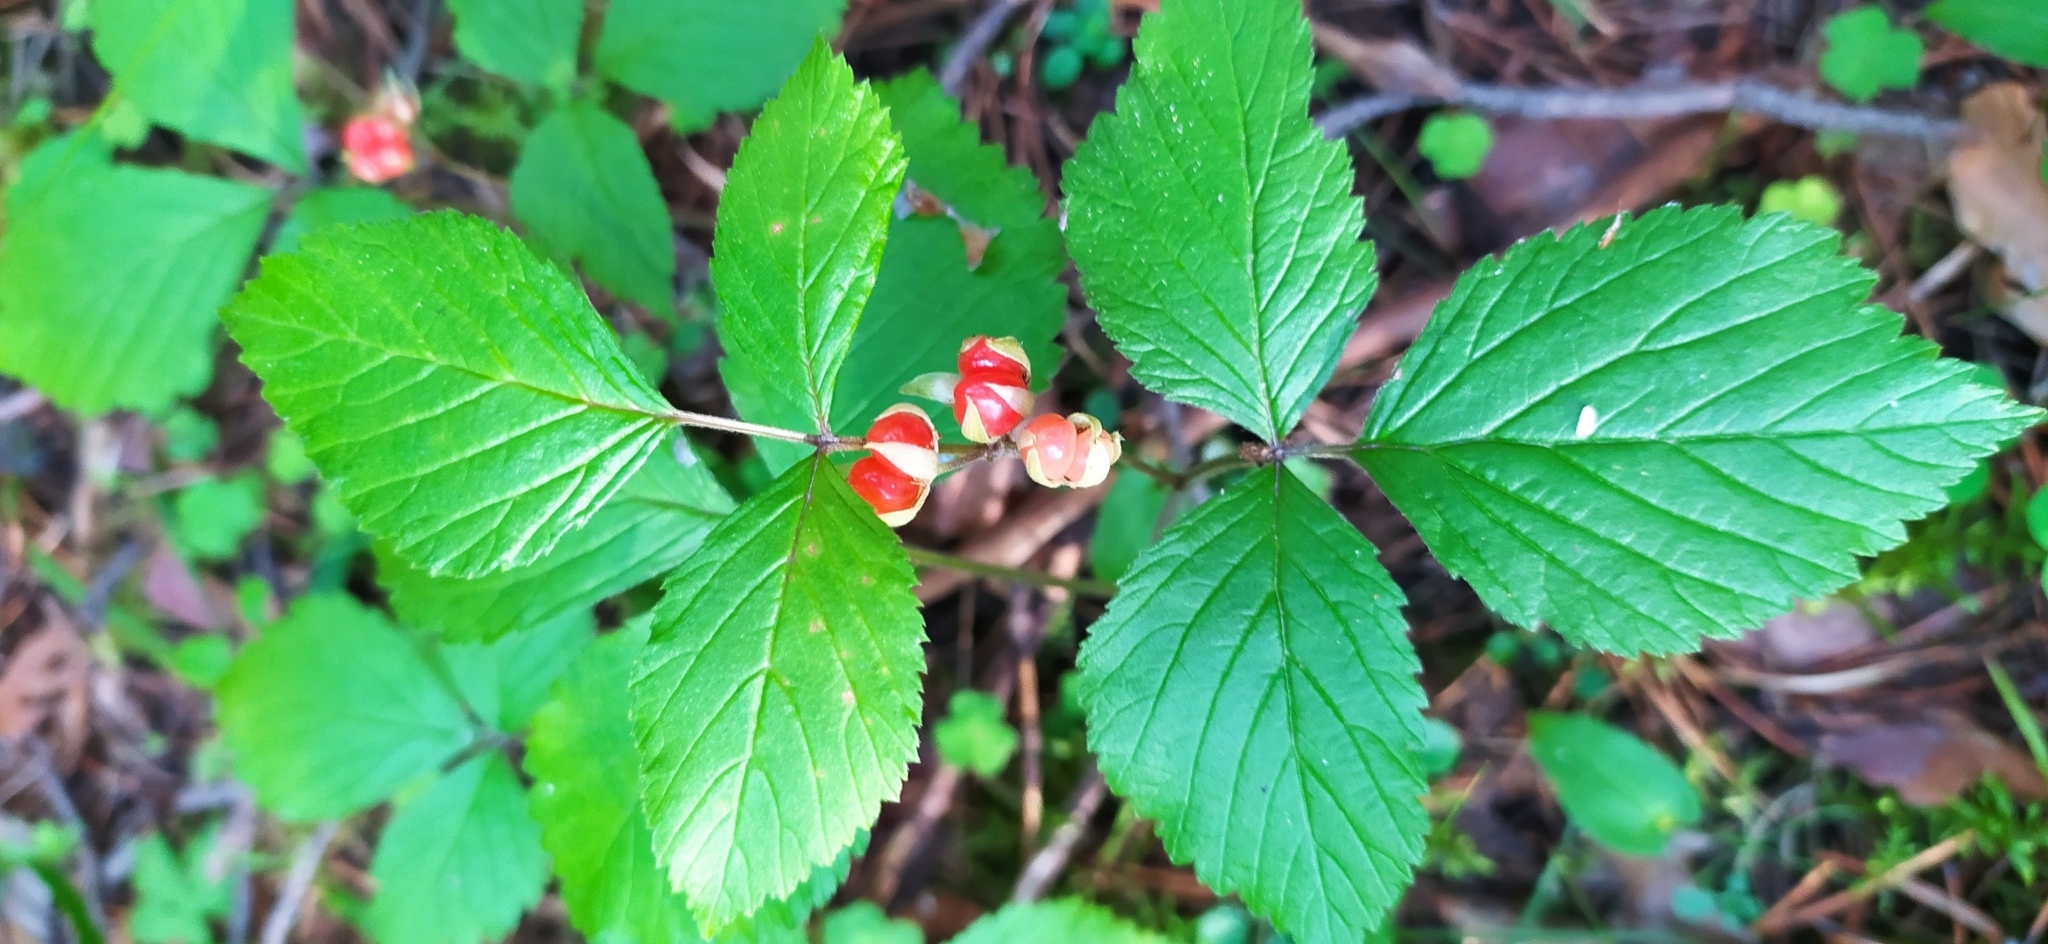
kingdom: Plantae
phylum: Tracheophyta
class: Magnoliopsida
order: Rosales
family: Rosaceae
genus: Rubus
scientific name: Rubus saxatilis
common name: Stone bramble
